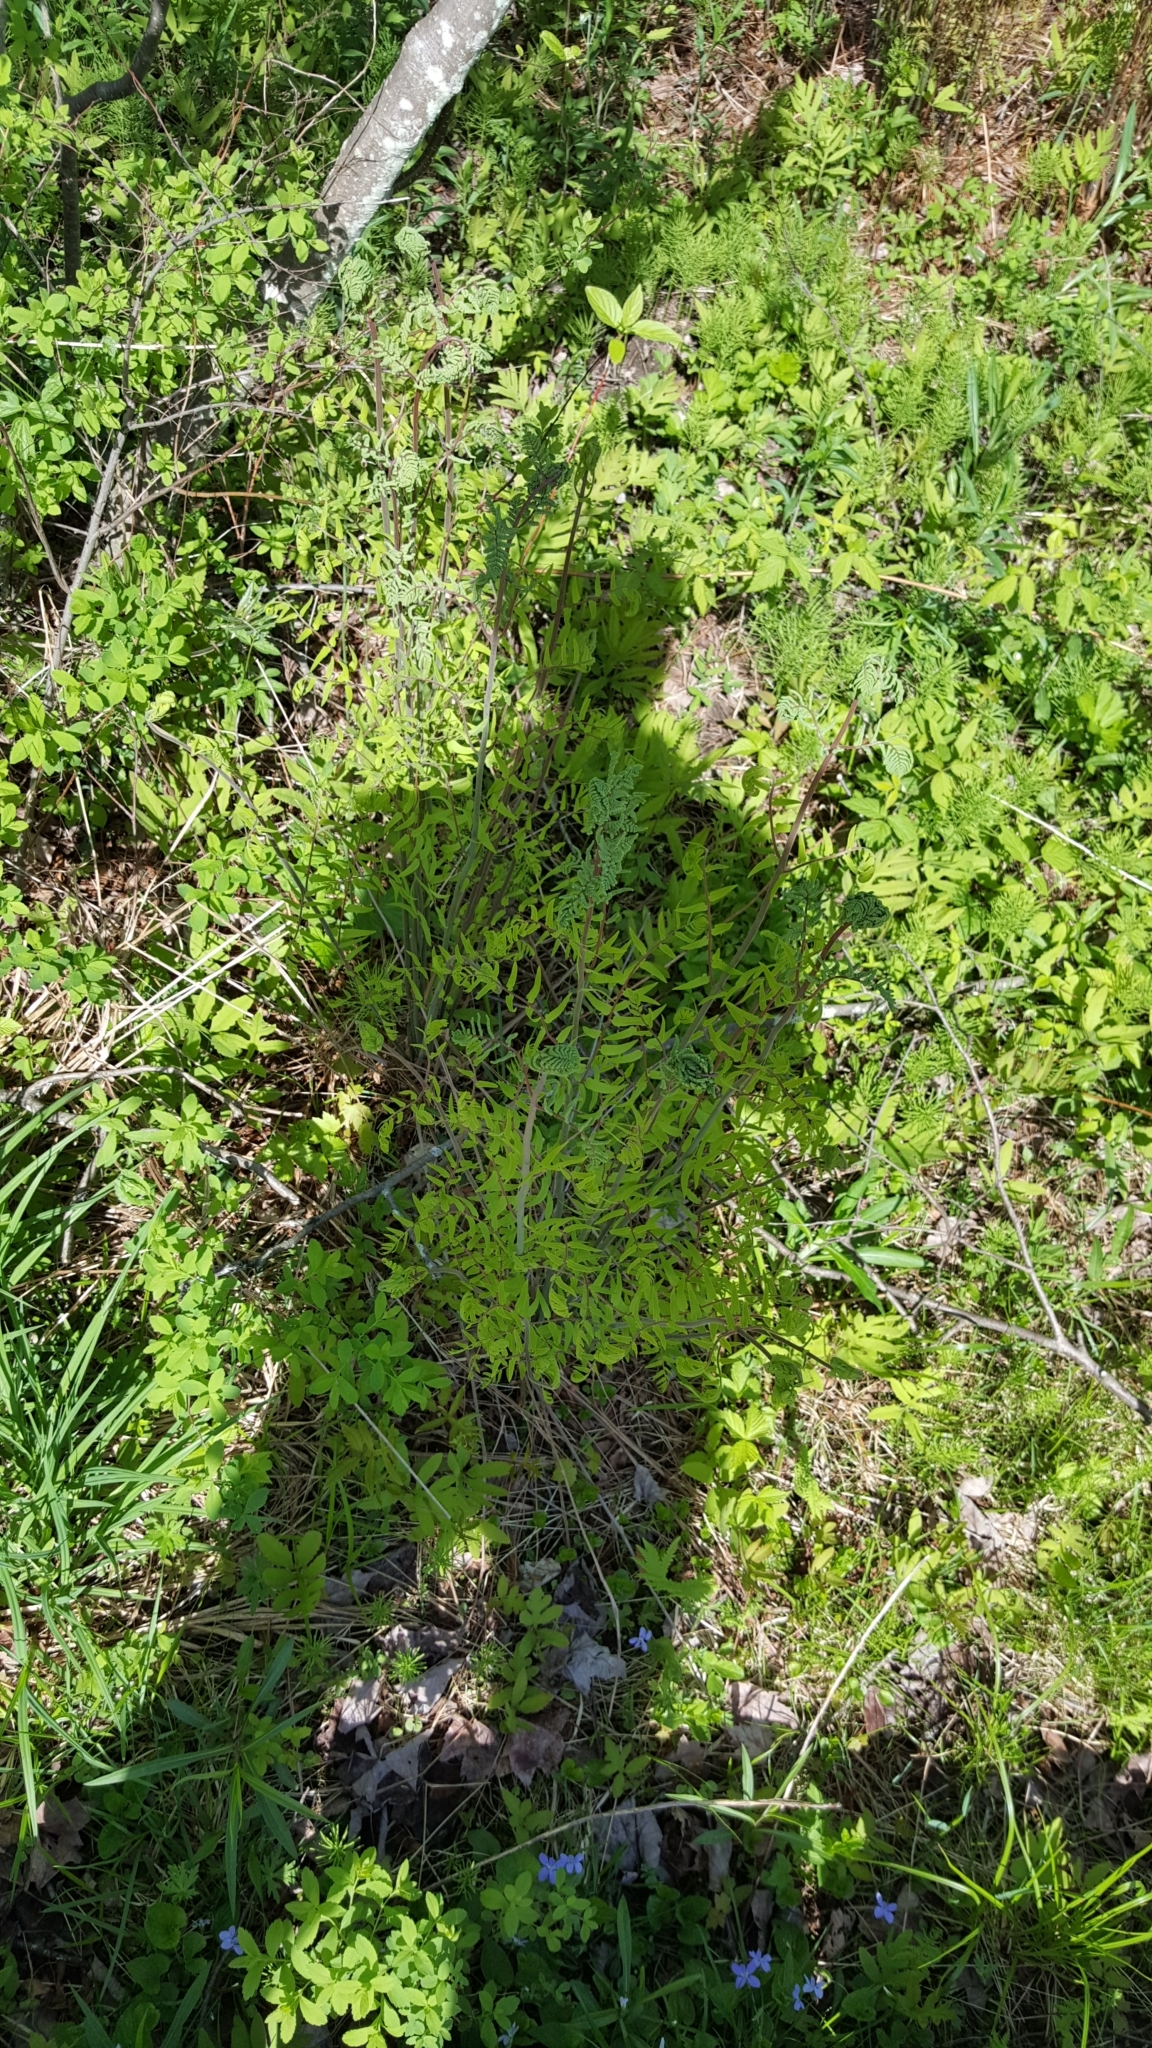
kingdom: Plantae
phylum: Tracheophyta
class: Polypodiopsida
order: Osmundales
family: Osmundaceae
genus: Osmunda
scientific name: Osmunda spectabilis
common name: American royal fern
